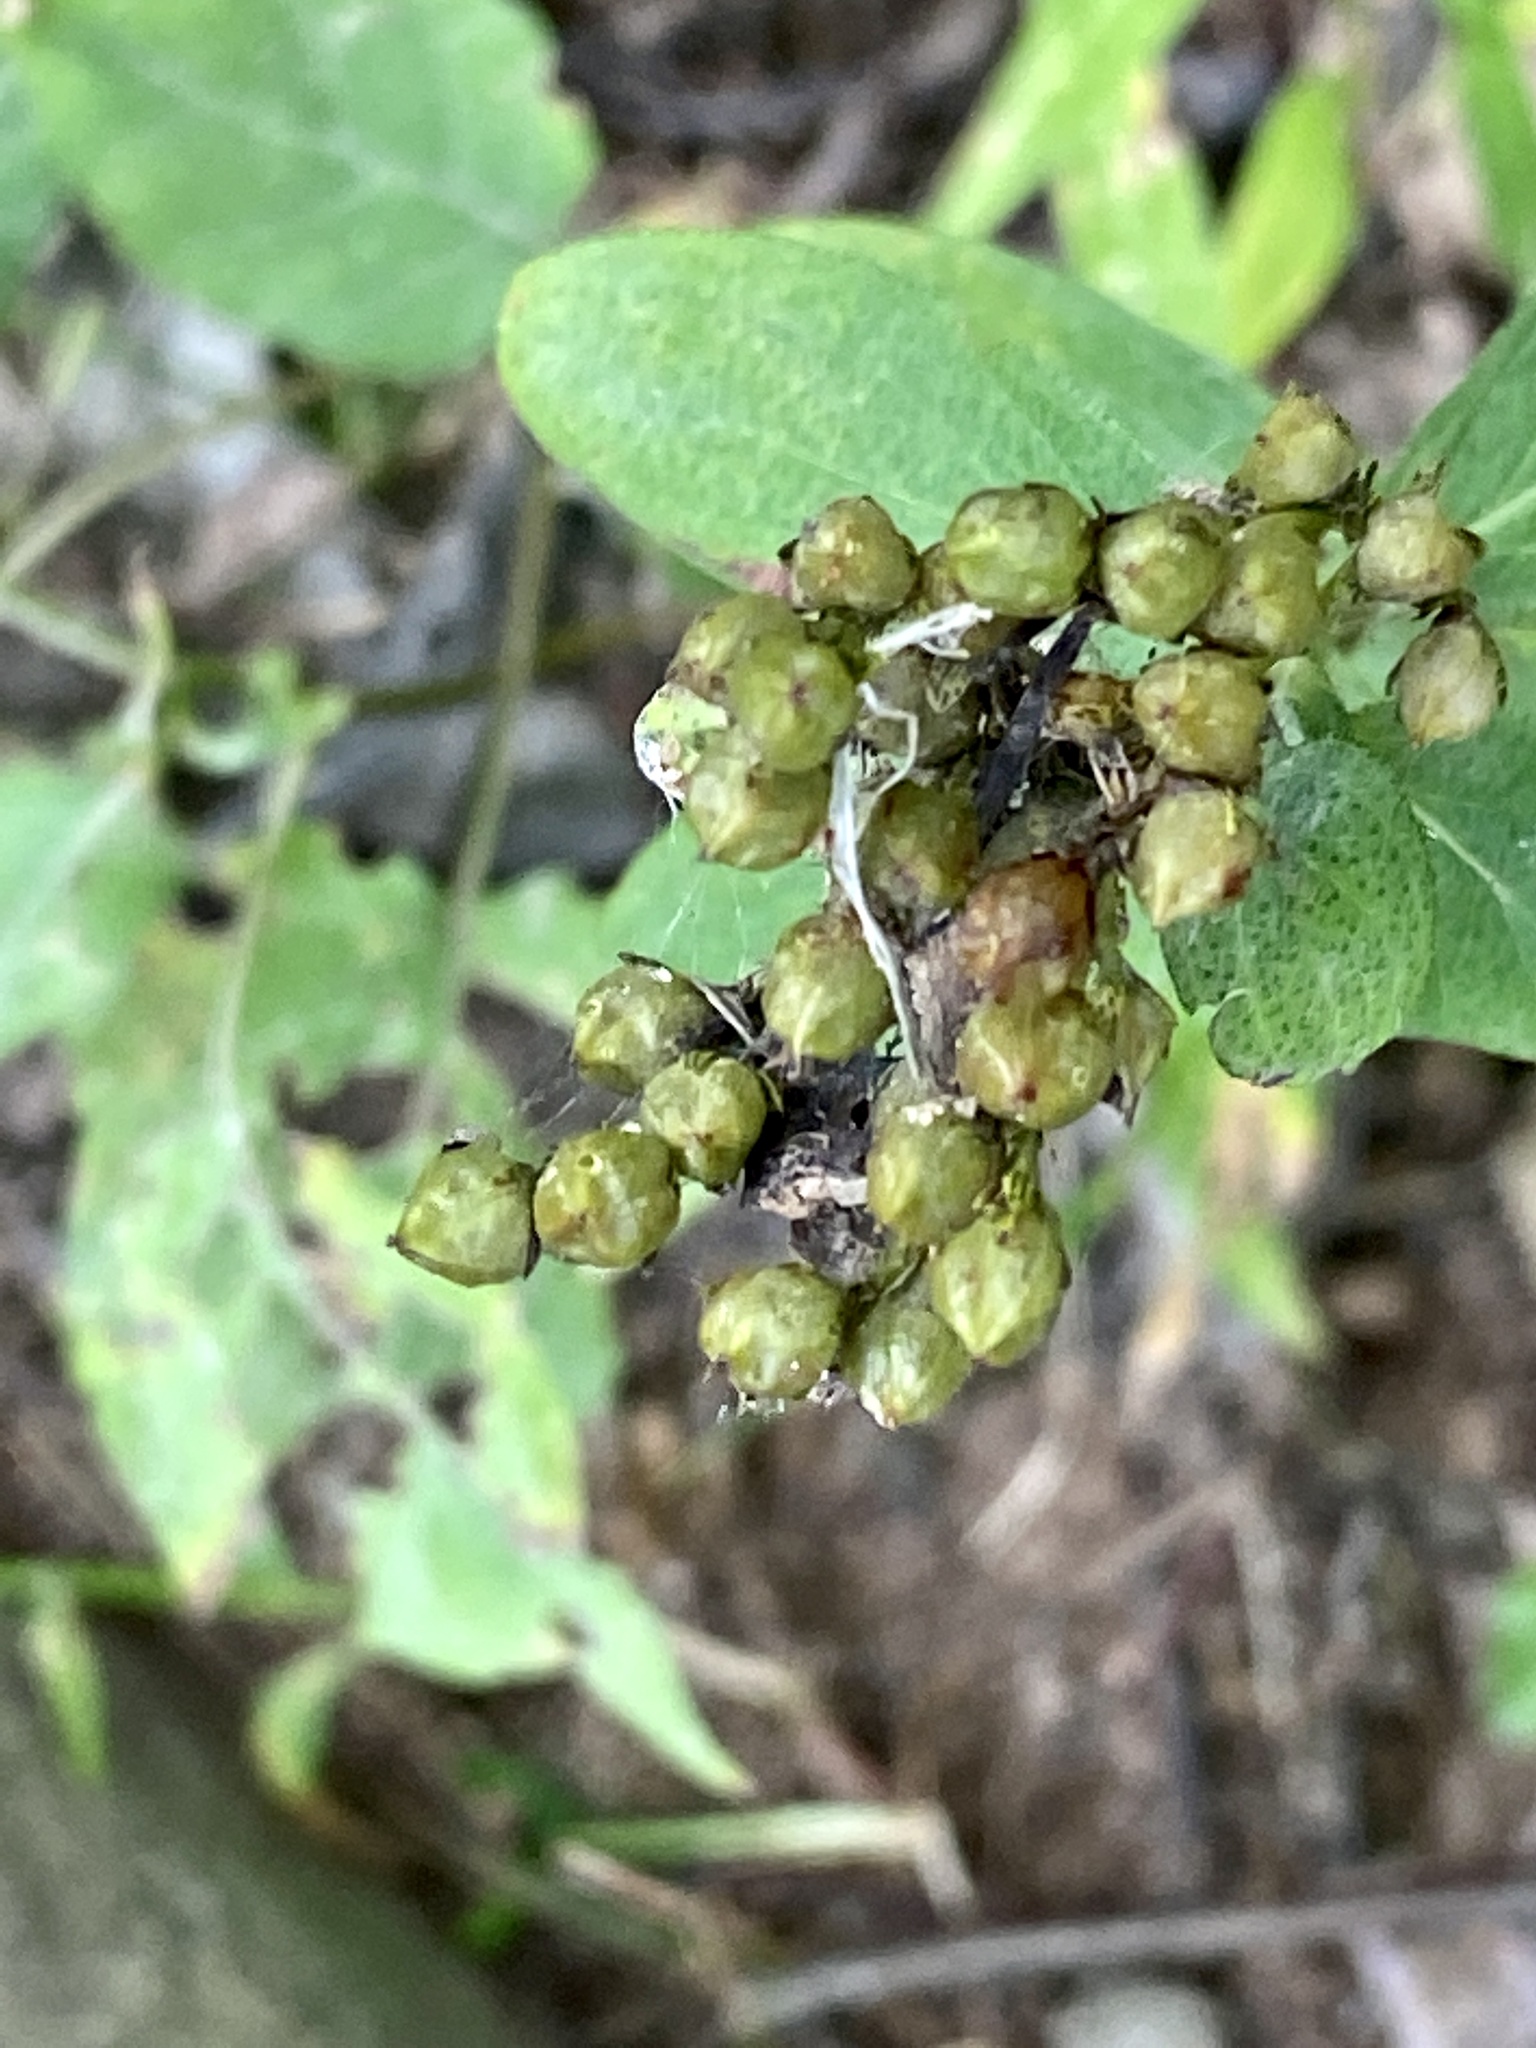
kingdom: Plantae
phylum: Tracheophyta
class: Magnoliopsida
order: Malpighiales
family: Hypericaceae
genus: Hypericum
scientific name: Hypericum punctatum
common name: Spotted st. john's-wort
